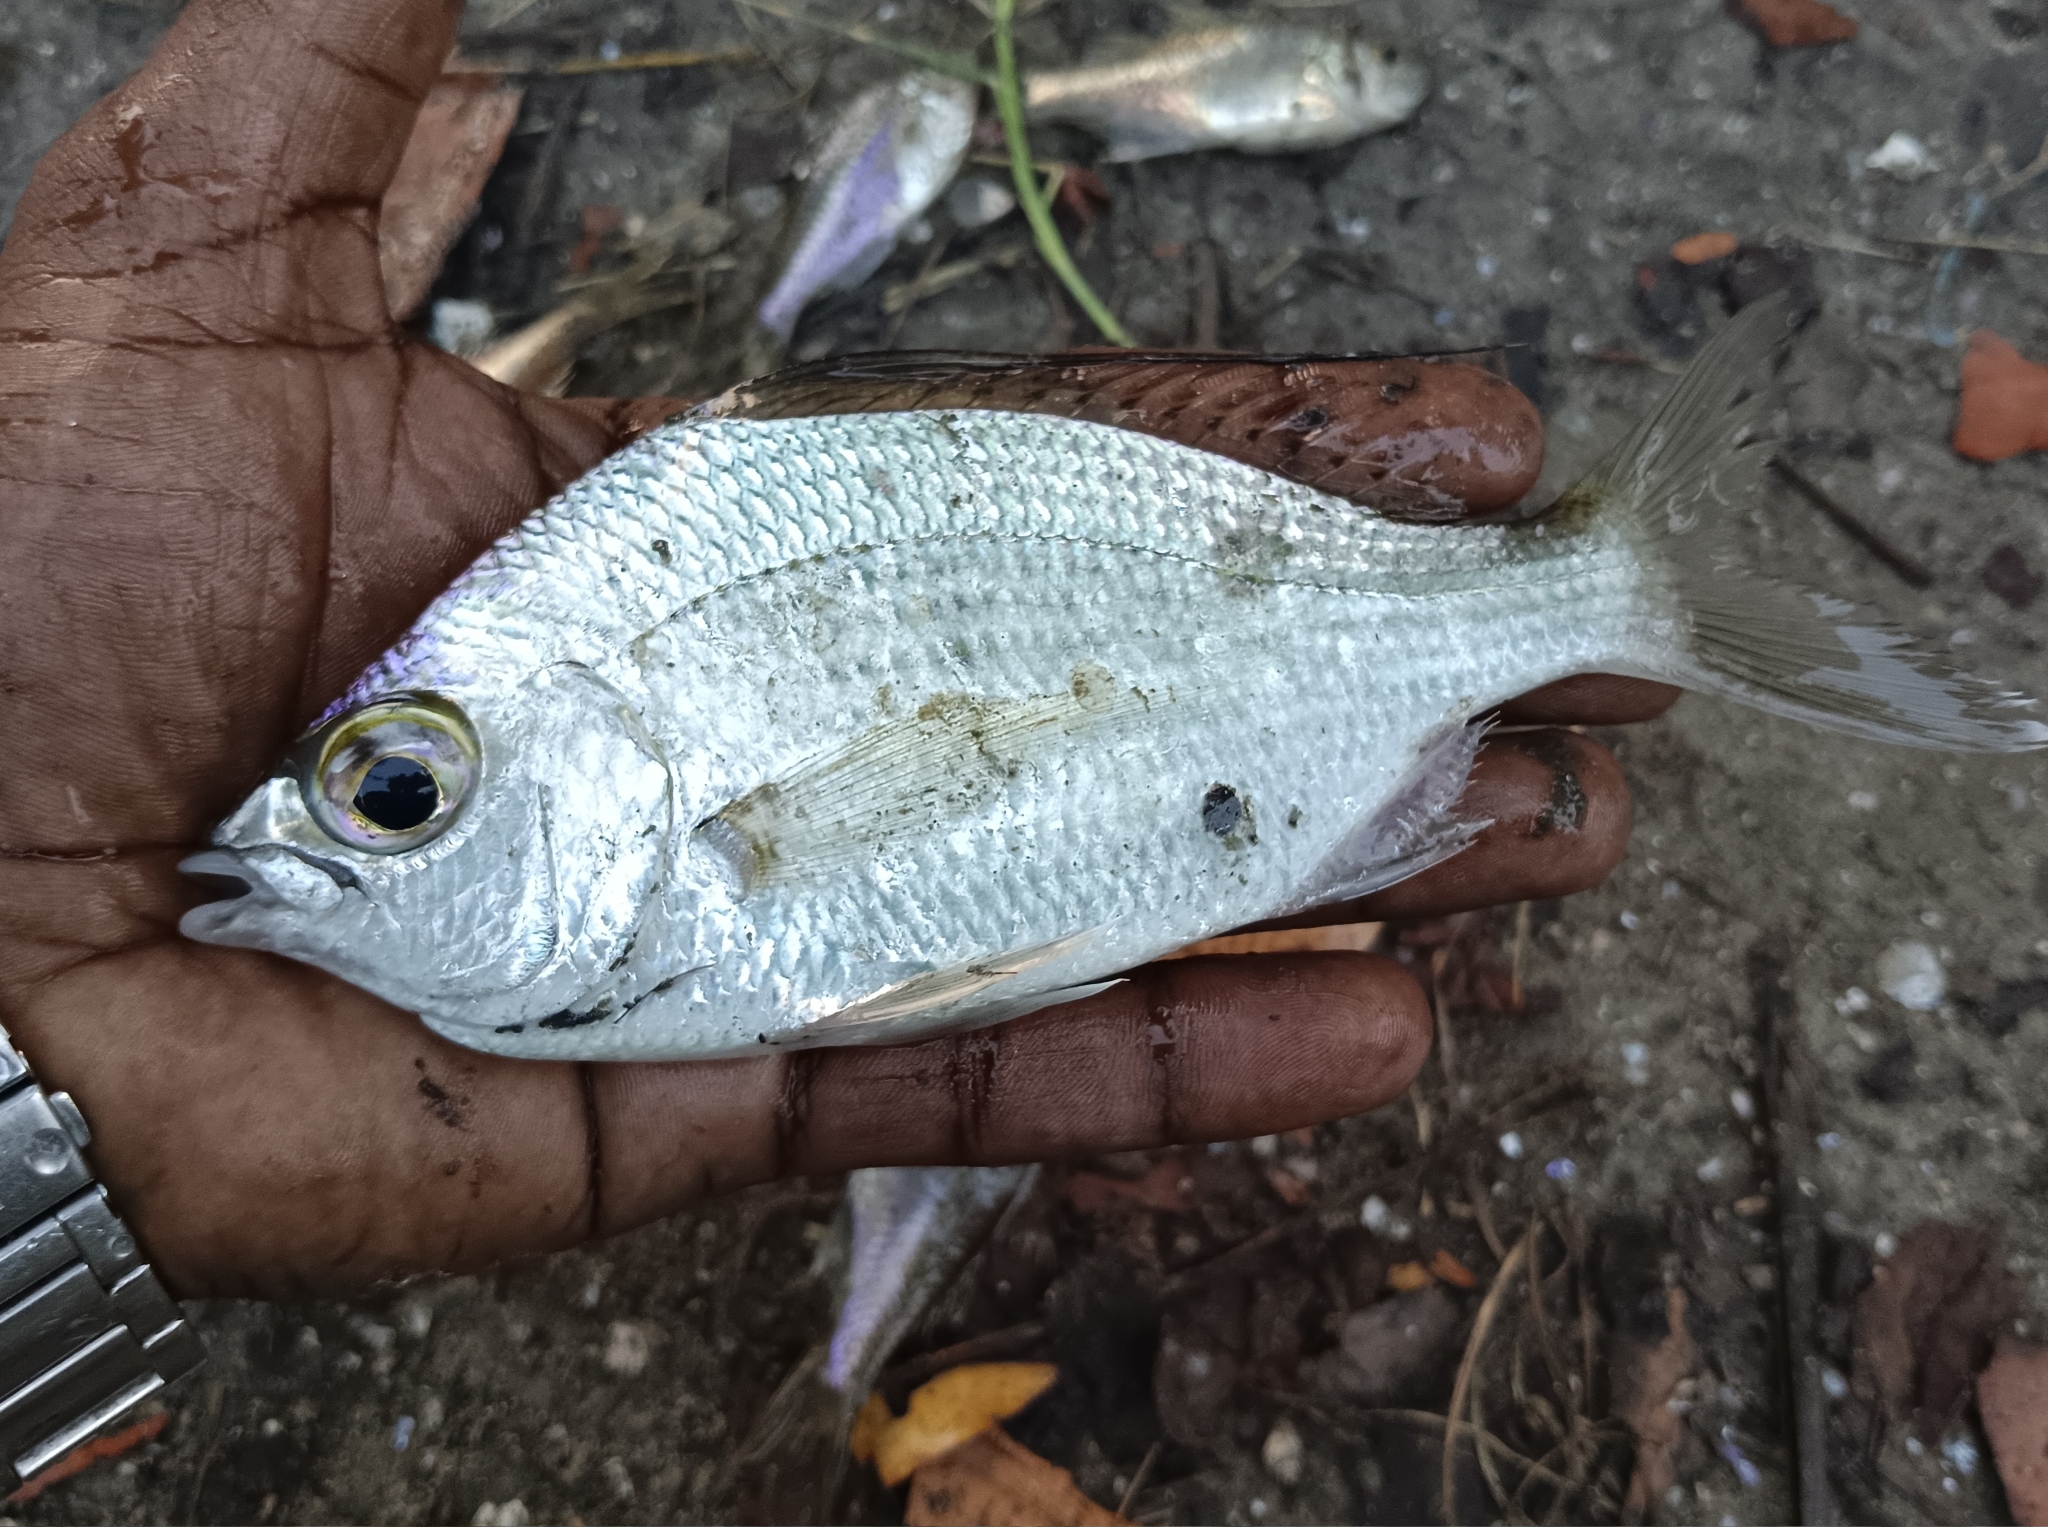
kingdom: Animalia
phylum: Chordata
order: Perciformes
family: Gerreidae
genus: Gerres
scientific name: Gerres filamentosus
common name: Whipfin silverbiddy
